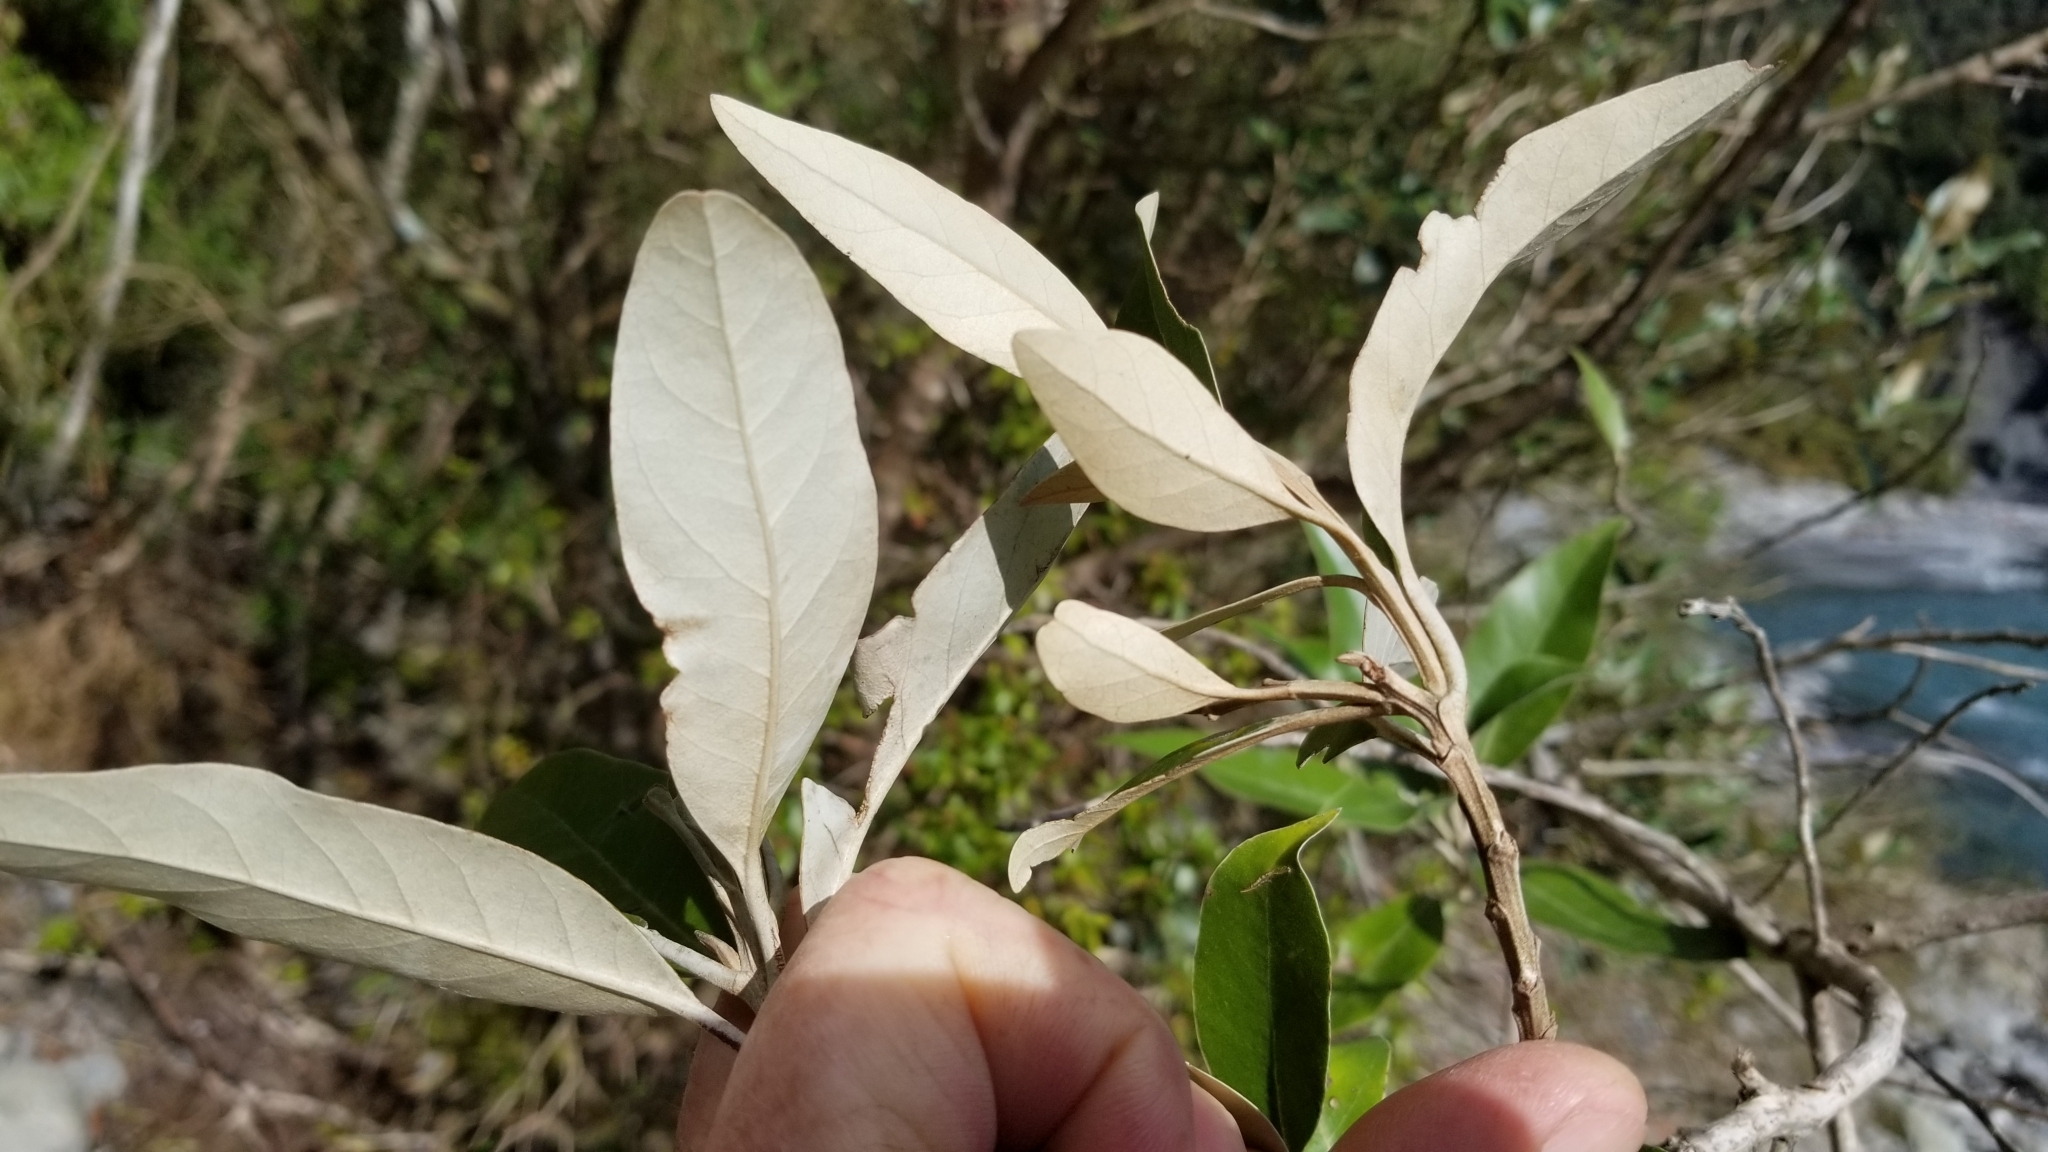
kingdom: Plantae
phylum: Tracheophyta
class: Magnoliopsida
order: Asterales
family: Asteraceae
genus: Olearia
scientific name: Olearia avicenniifolia
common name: Mangrove-leaf daisybush
